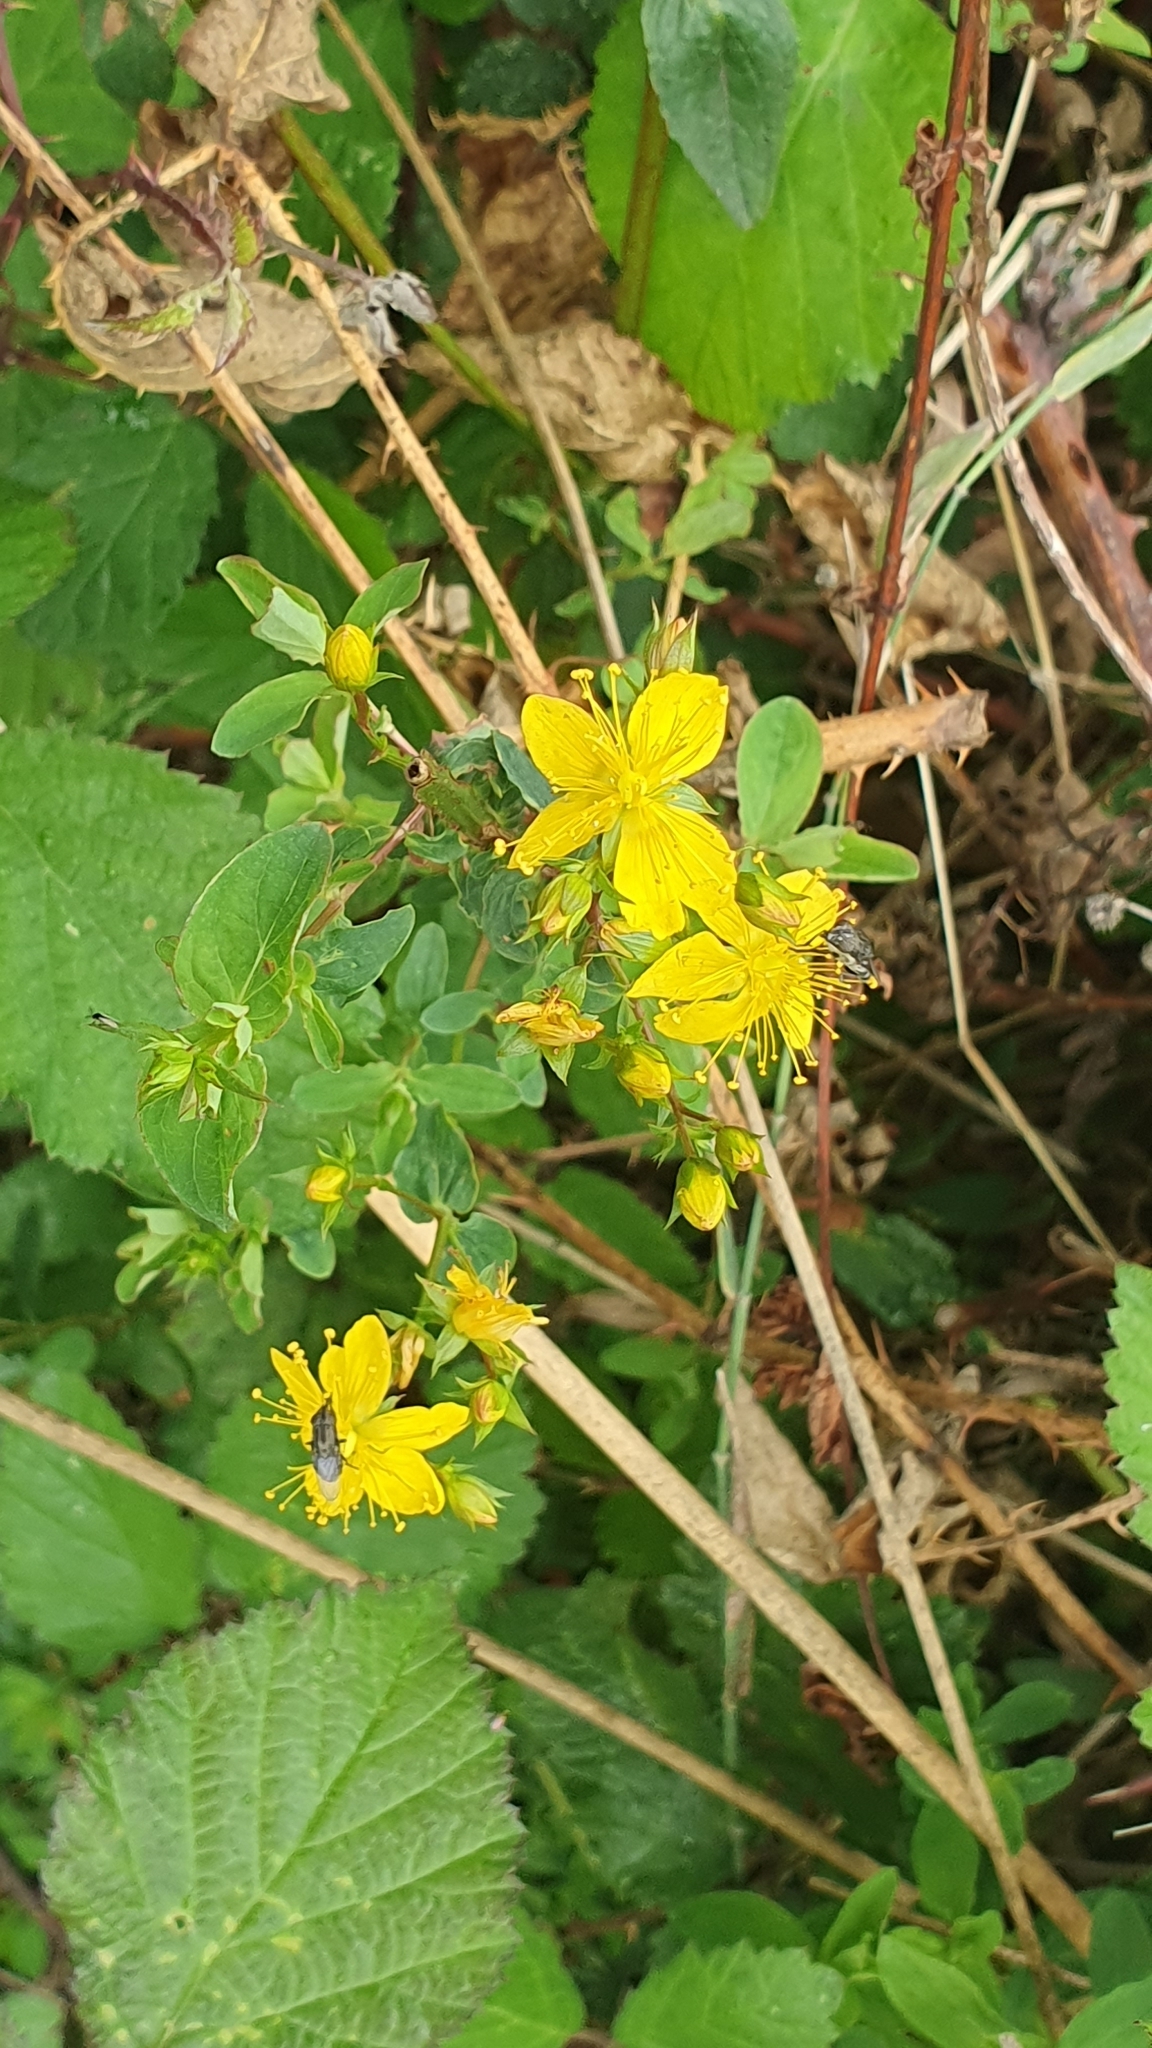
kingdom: Plantae
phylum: Tracheophyta
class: Magnoliopsida
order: Malpighiales
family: Hypericaceae
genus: Hypericum
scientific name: Hypericum perforatum
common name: Common st. johnswort
